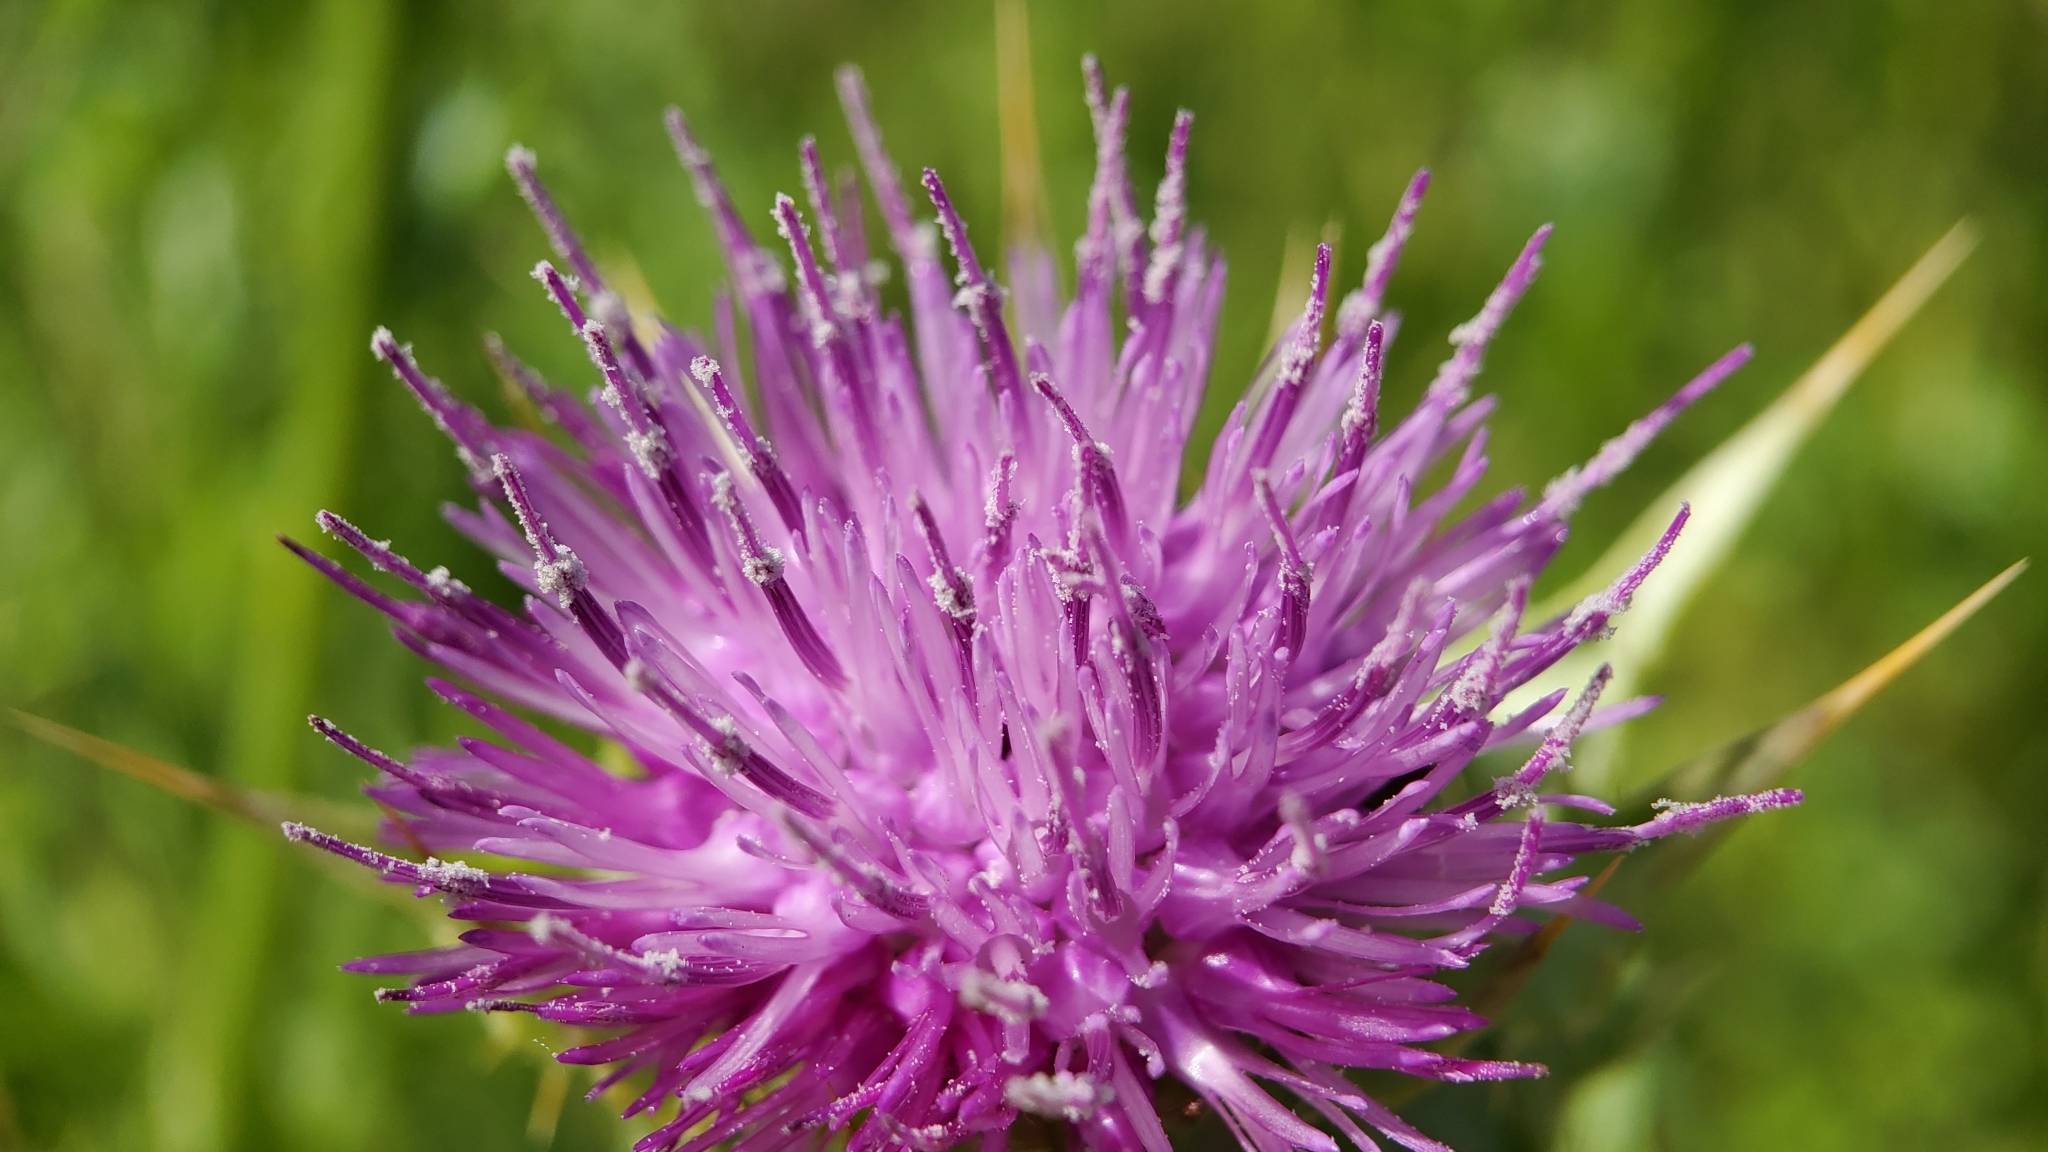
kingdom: Plantae
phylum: Tracheophyta
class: Magnoliopsida
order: Asterales
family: Asteraceae
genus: Silybum
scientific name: Silybum marianum
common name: Milk thistle
